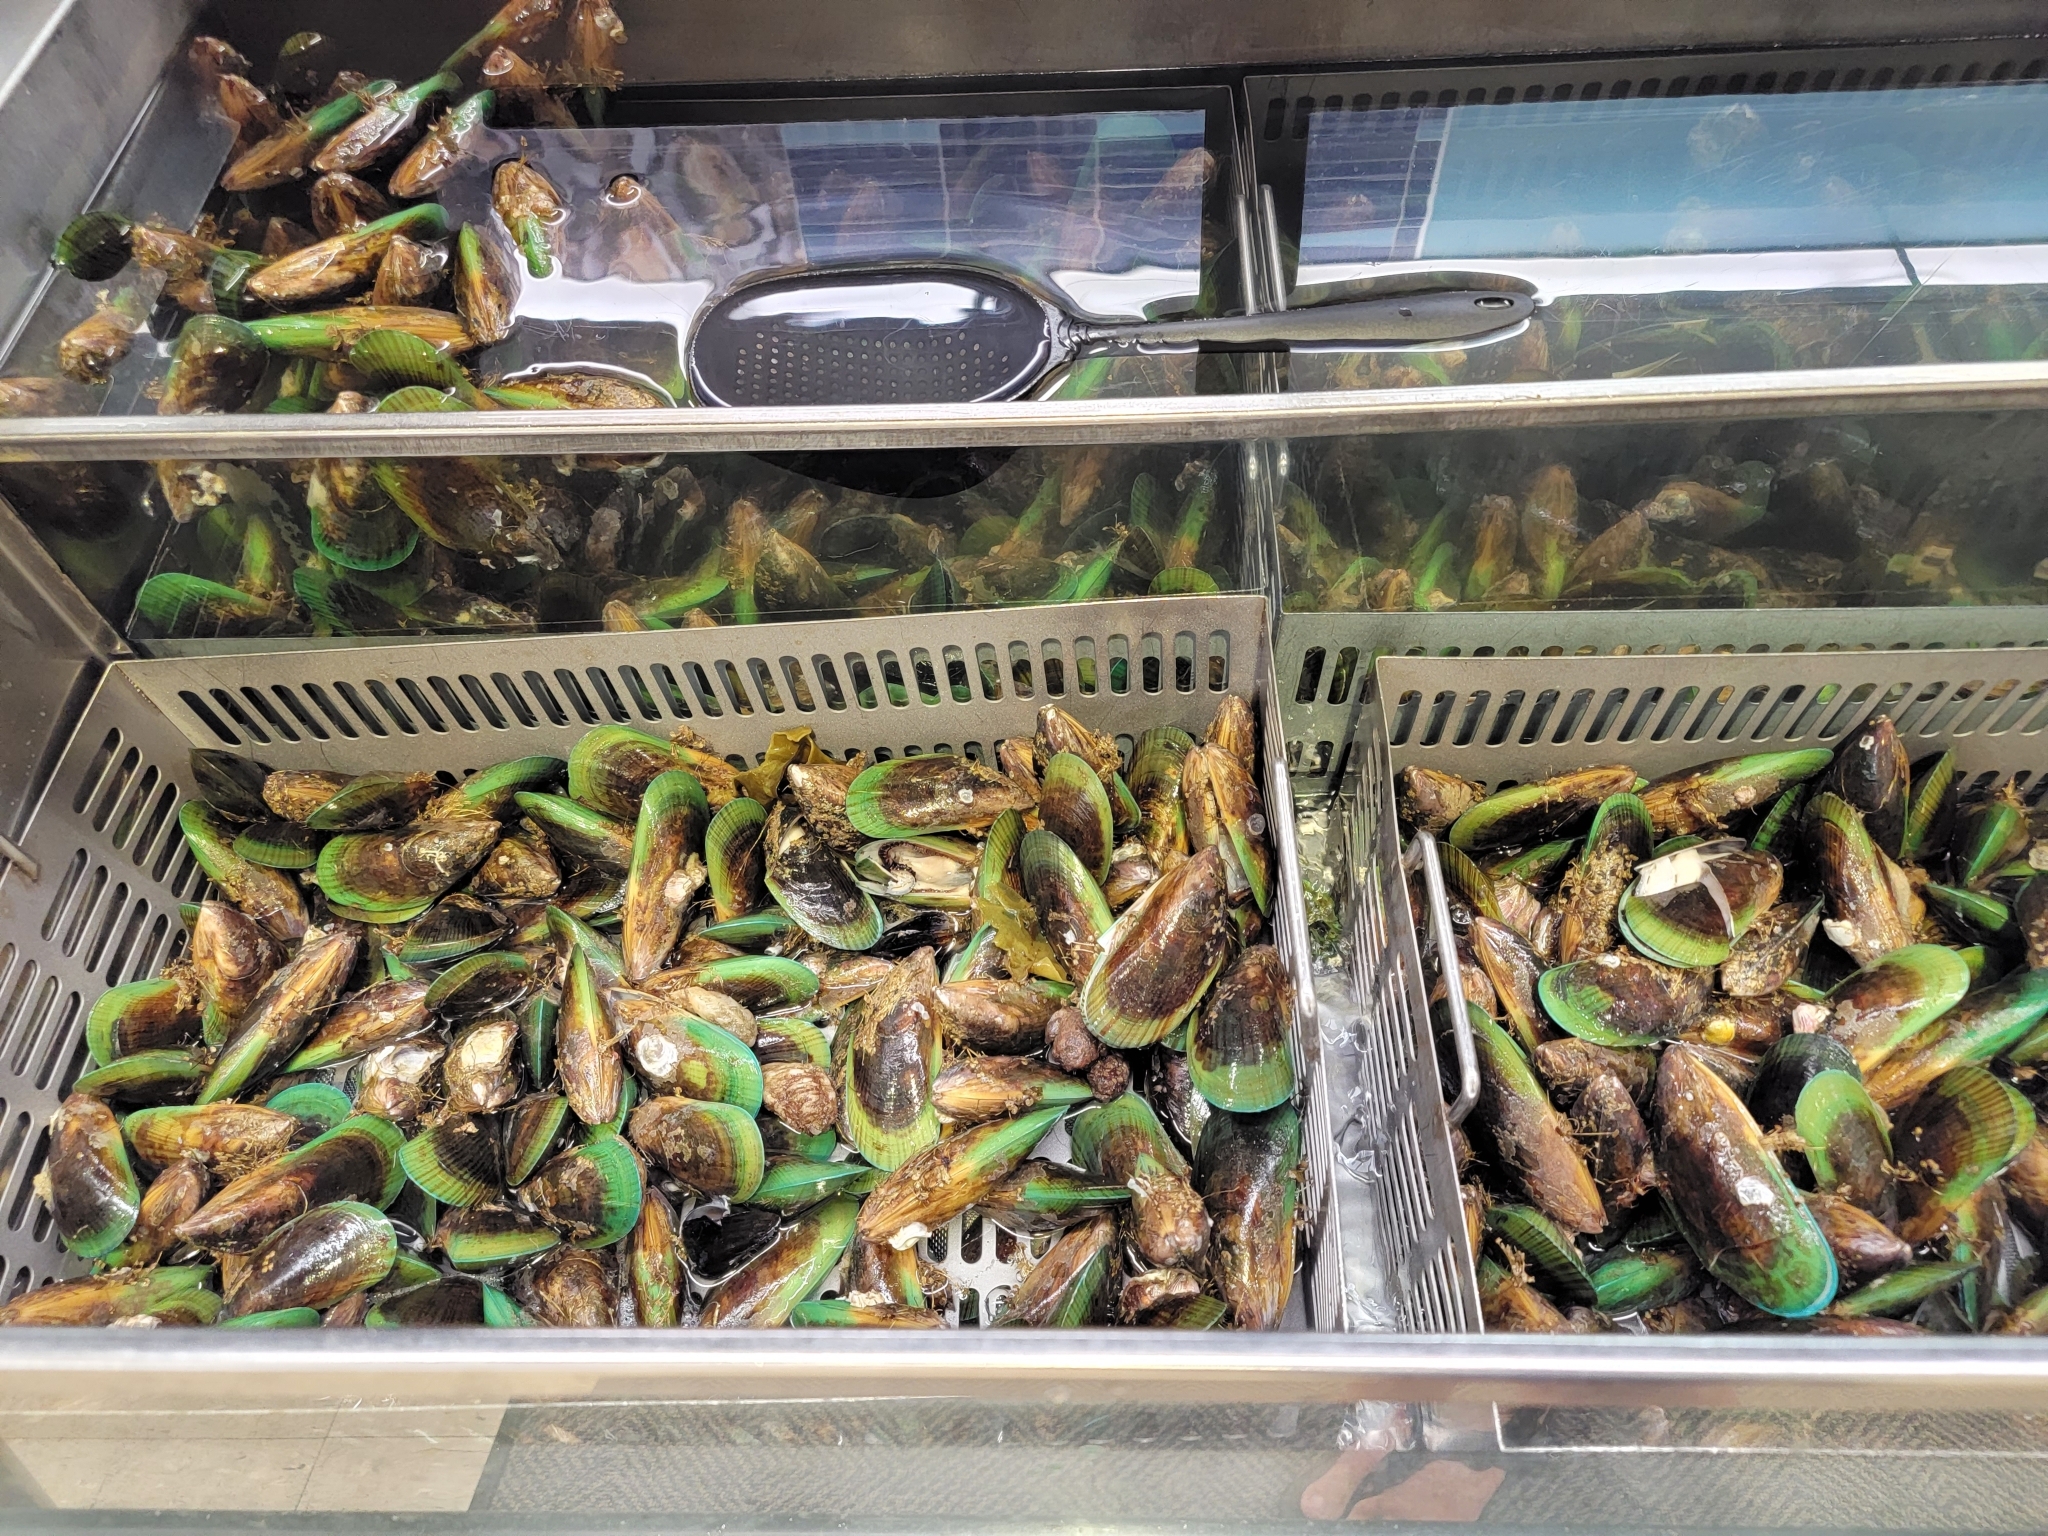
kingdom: Animalia
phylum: Mollusca
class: Bivalvia
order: Mytilida
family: Mytilidae
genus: Perna
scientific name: Perna canaliculus
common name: New zealand greenshelltm
